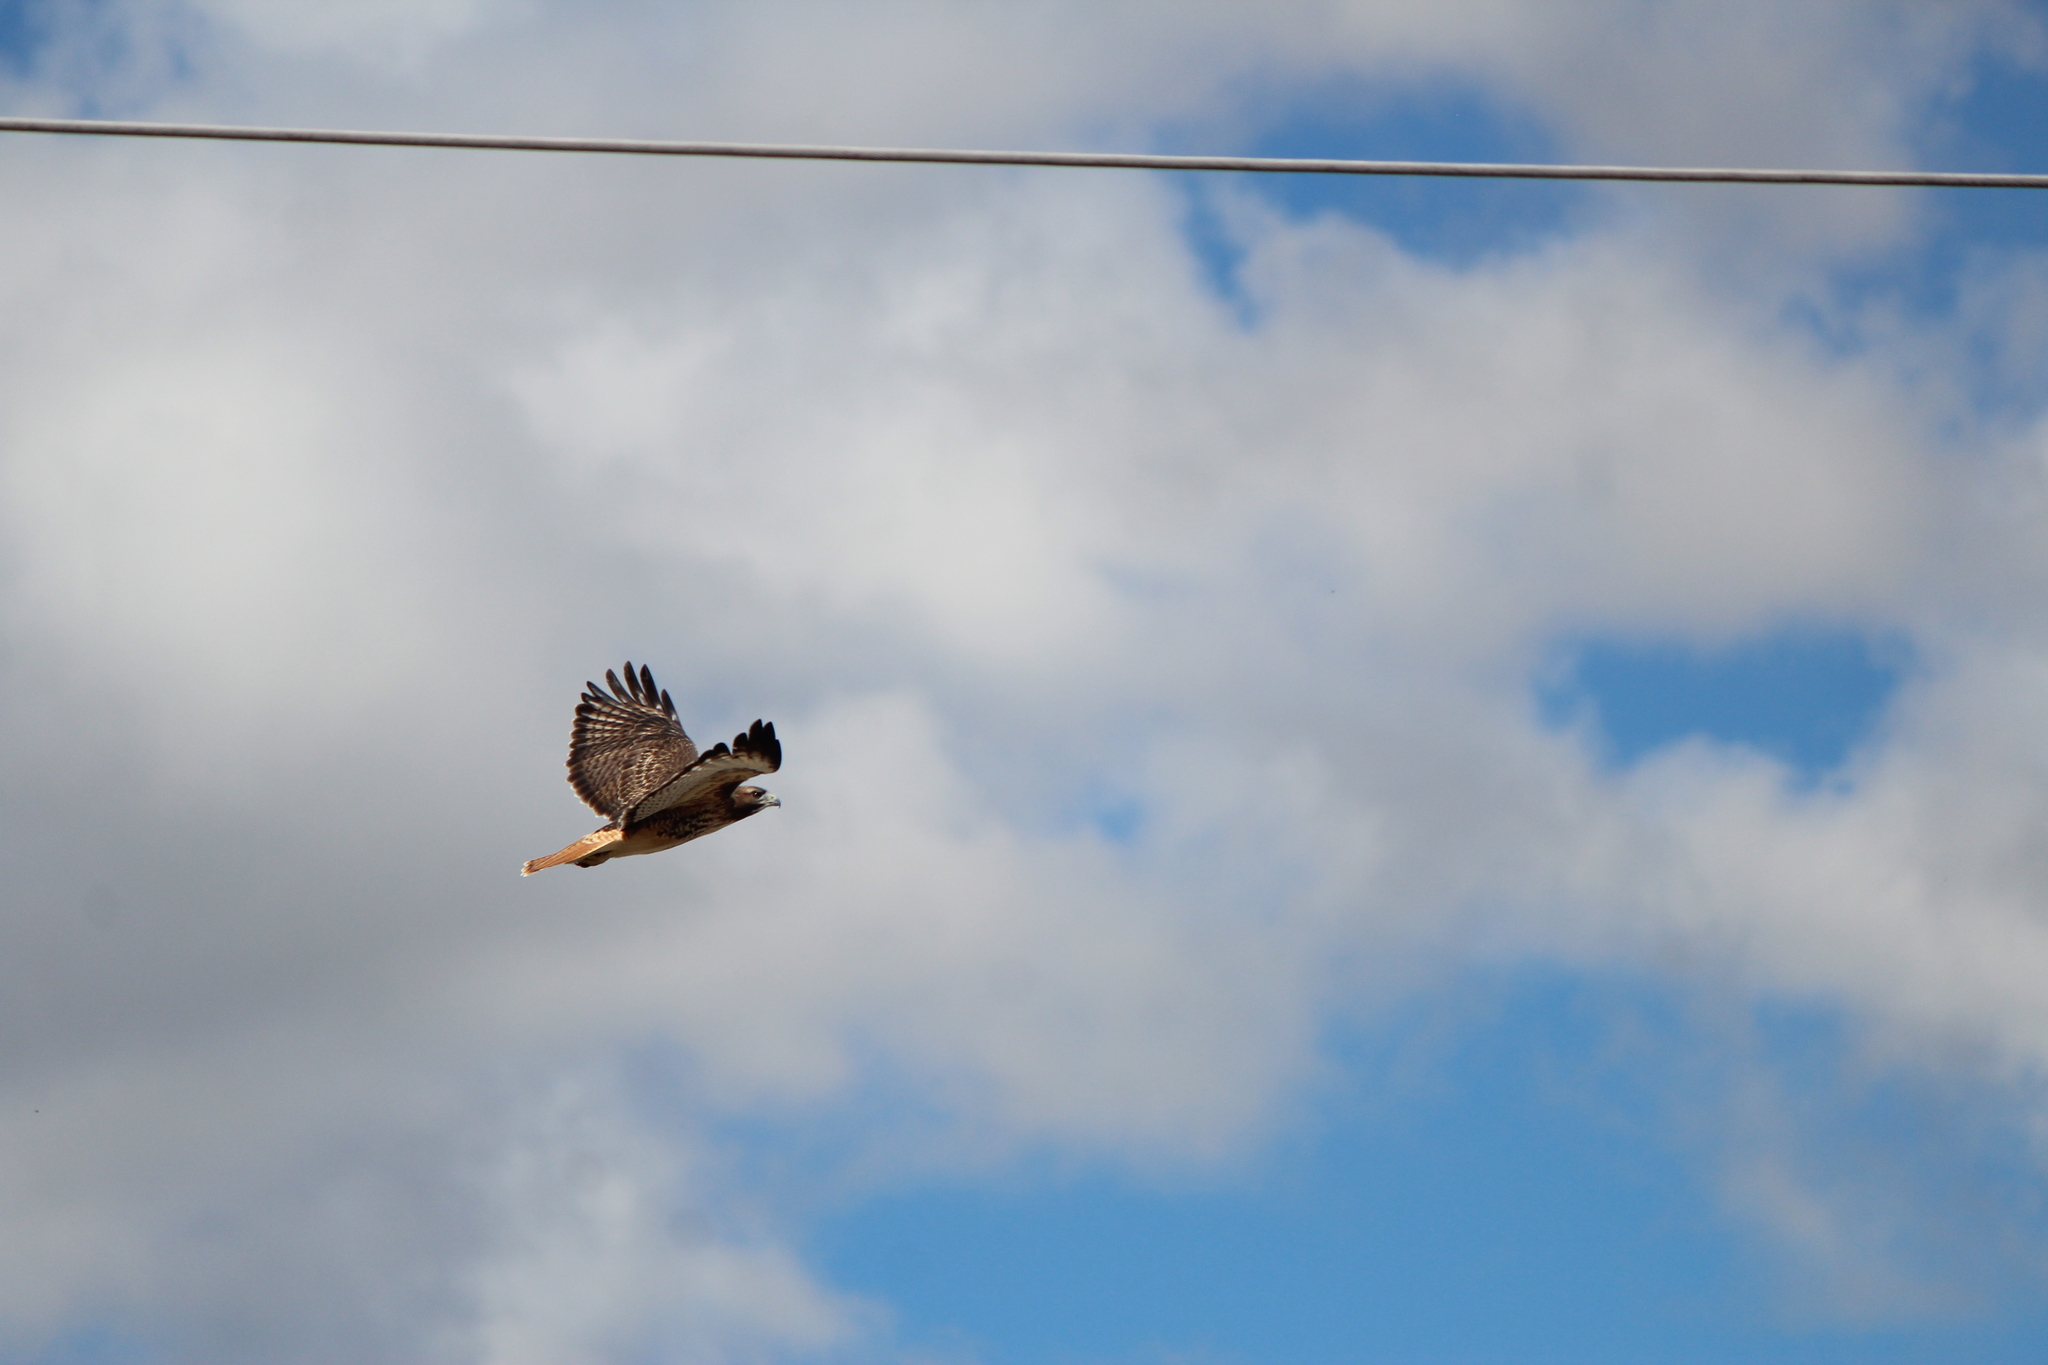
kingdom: Animalia
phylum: Chordata
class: Aves
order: Accipitriformes
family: Accipitridae
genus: Buteo
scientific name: Buteo jamaicensis
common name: Red-tailed hawk
